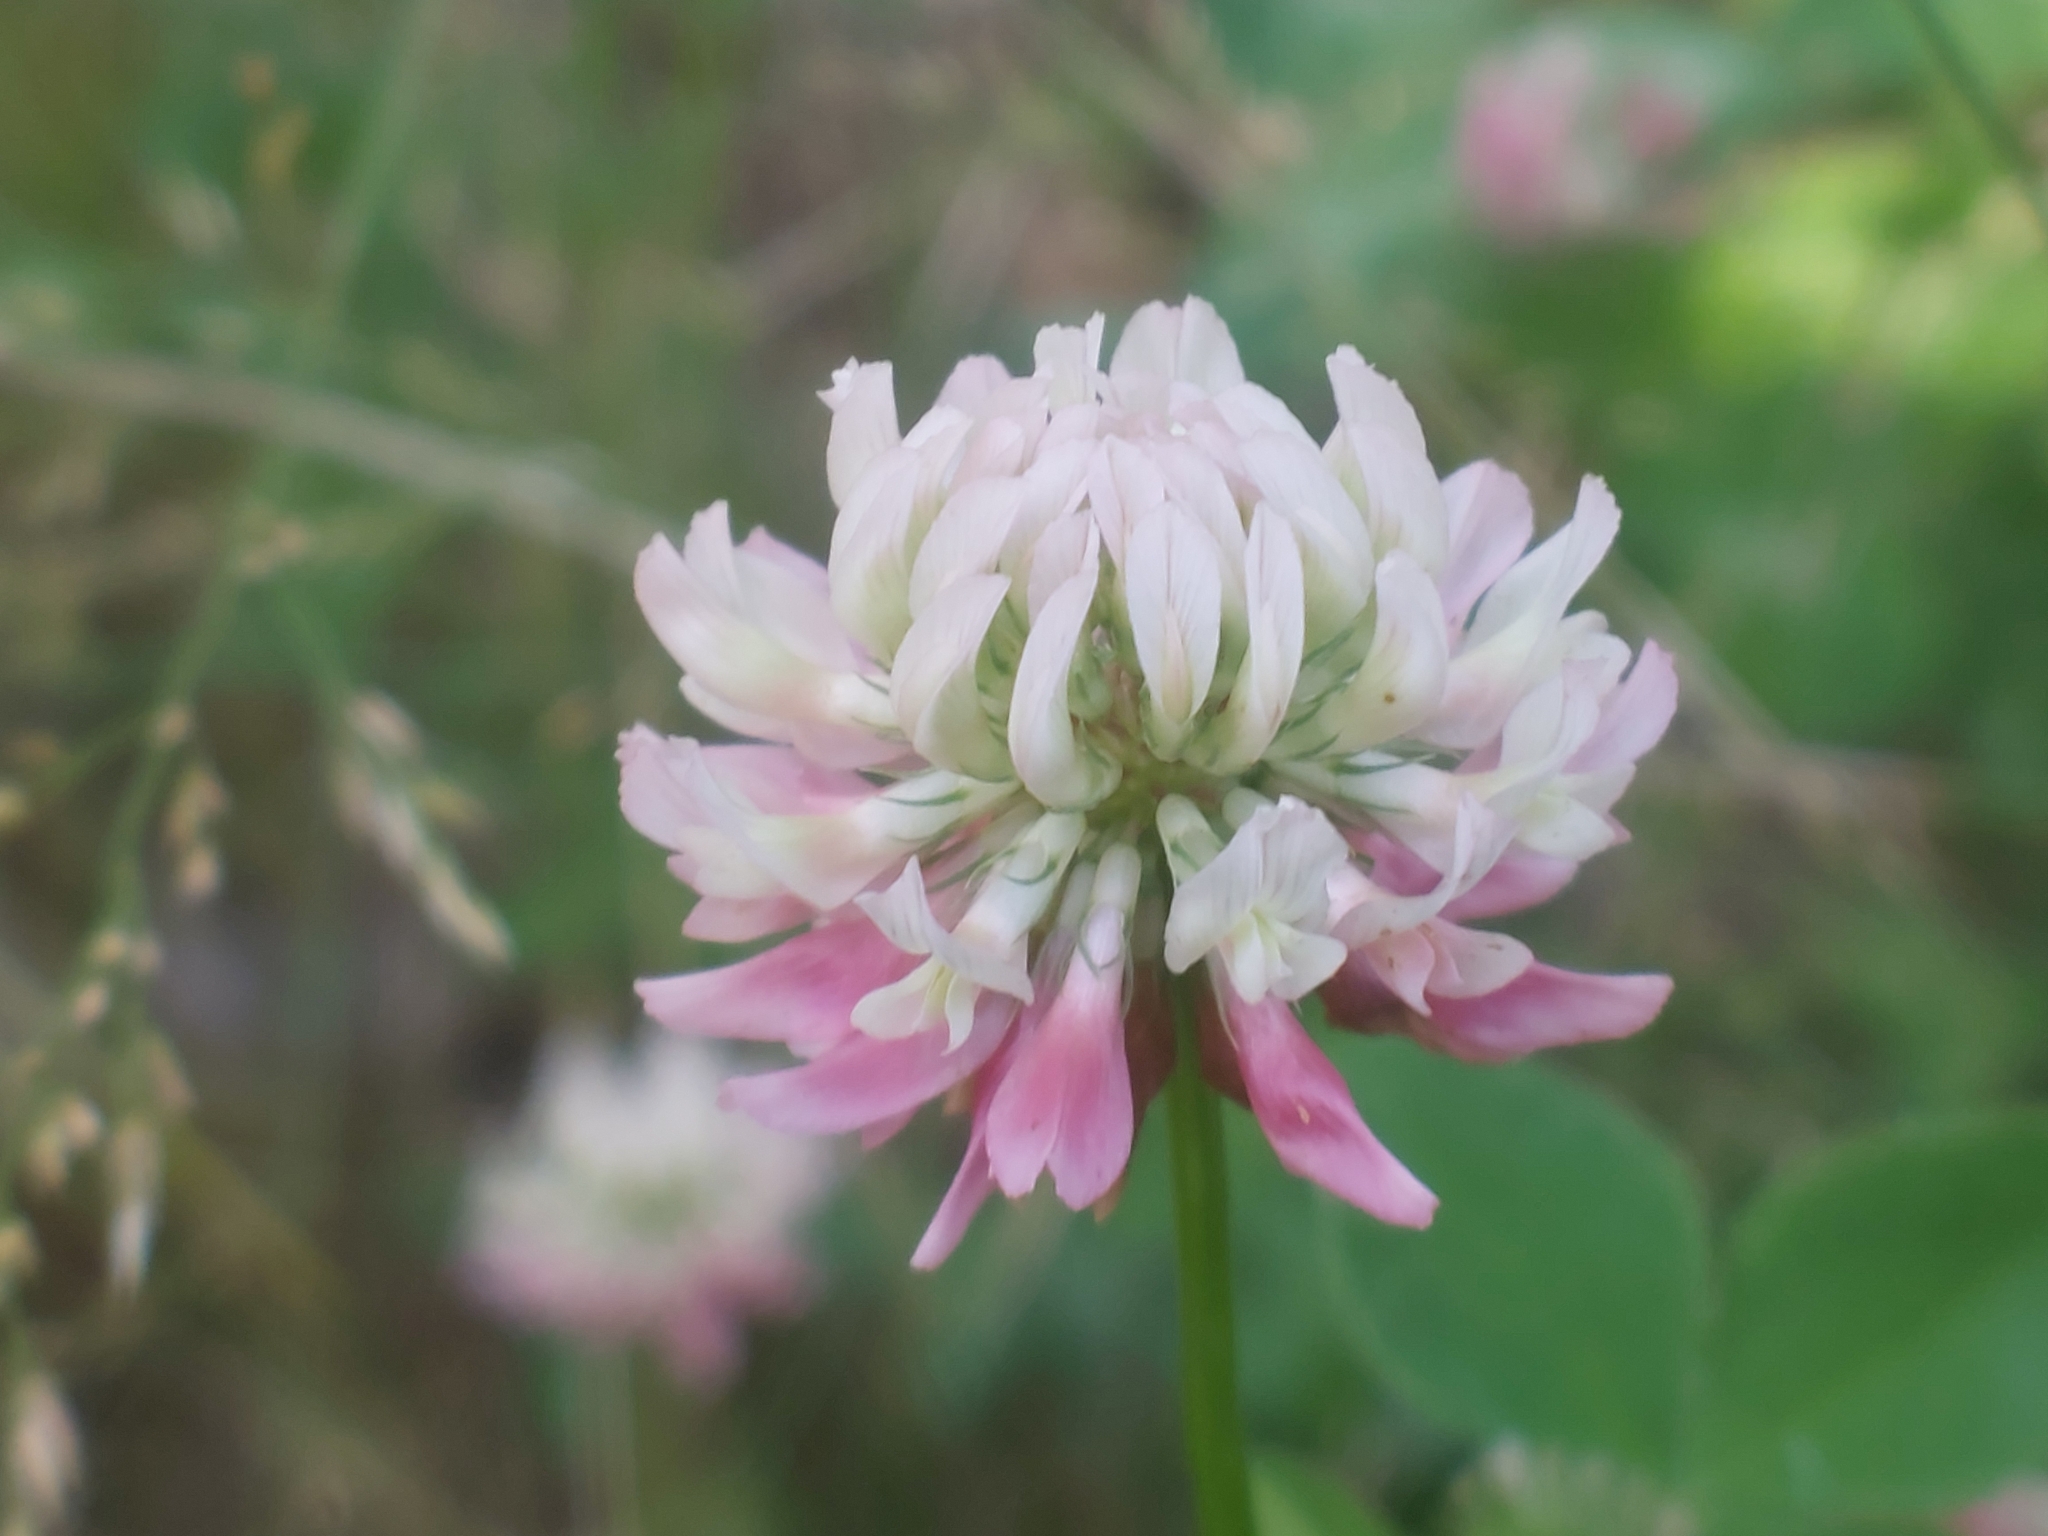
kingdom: Plantae
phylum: Tracheophyta
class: Magnoliopsida
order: Fabales
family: Fabaceae
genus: Trifolium
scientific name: Trifolium hybridum
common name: Alsike clover
